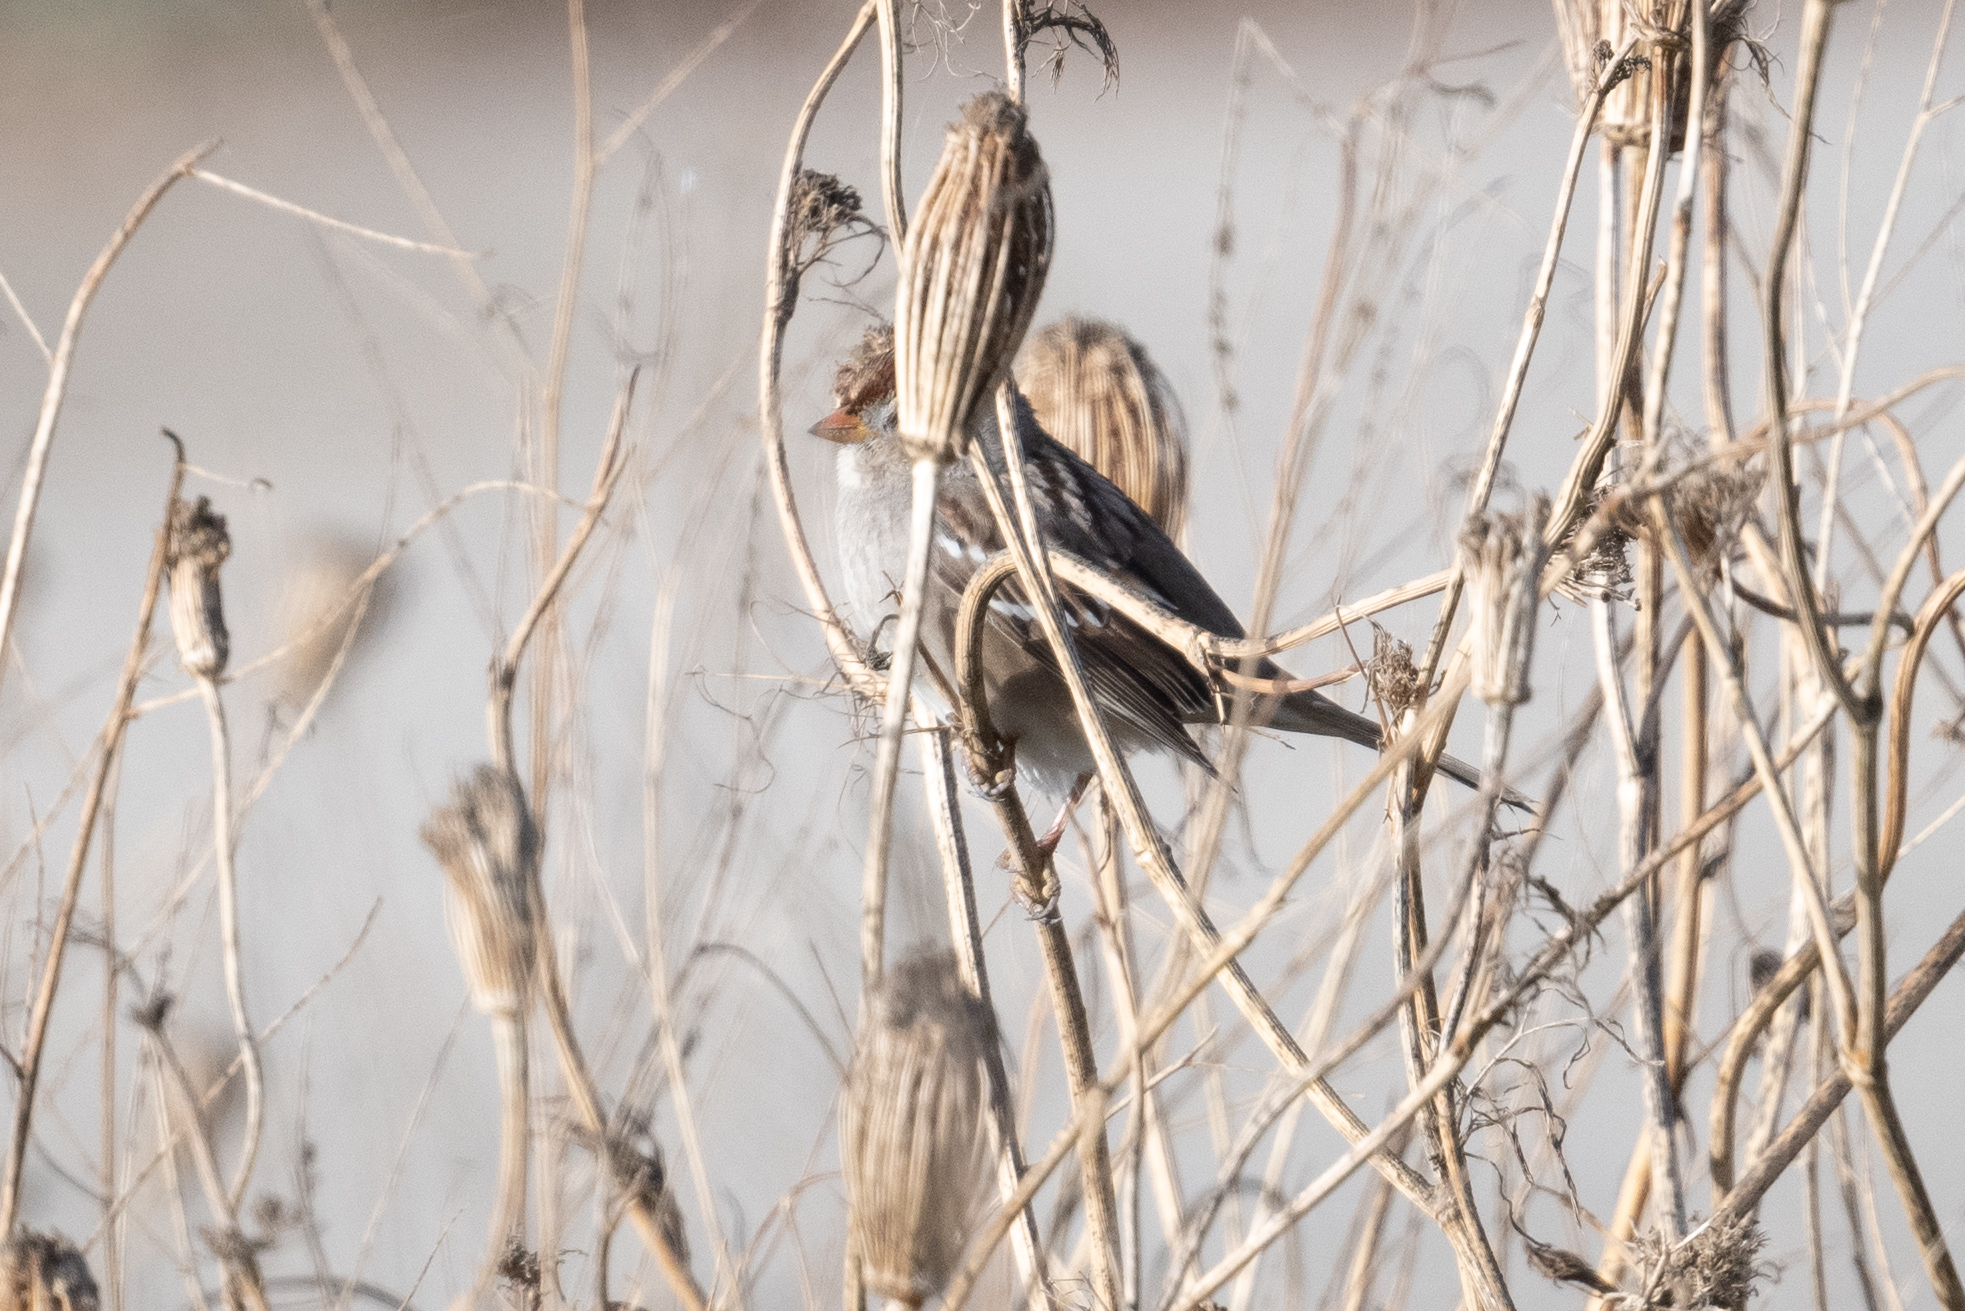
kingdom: Animalia
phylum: Chordata
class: Aves
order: Passeriformes
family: Passerellidae
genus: Zonotrichia
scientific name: Zonotrichia leucophrys
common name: White-crowned sparrow
